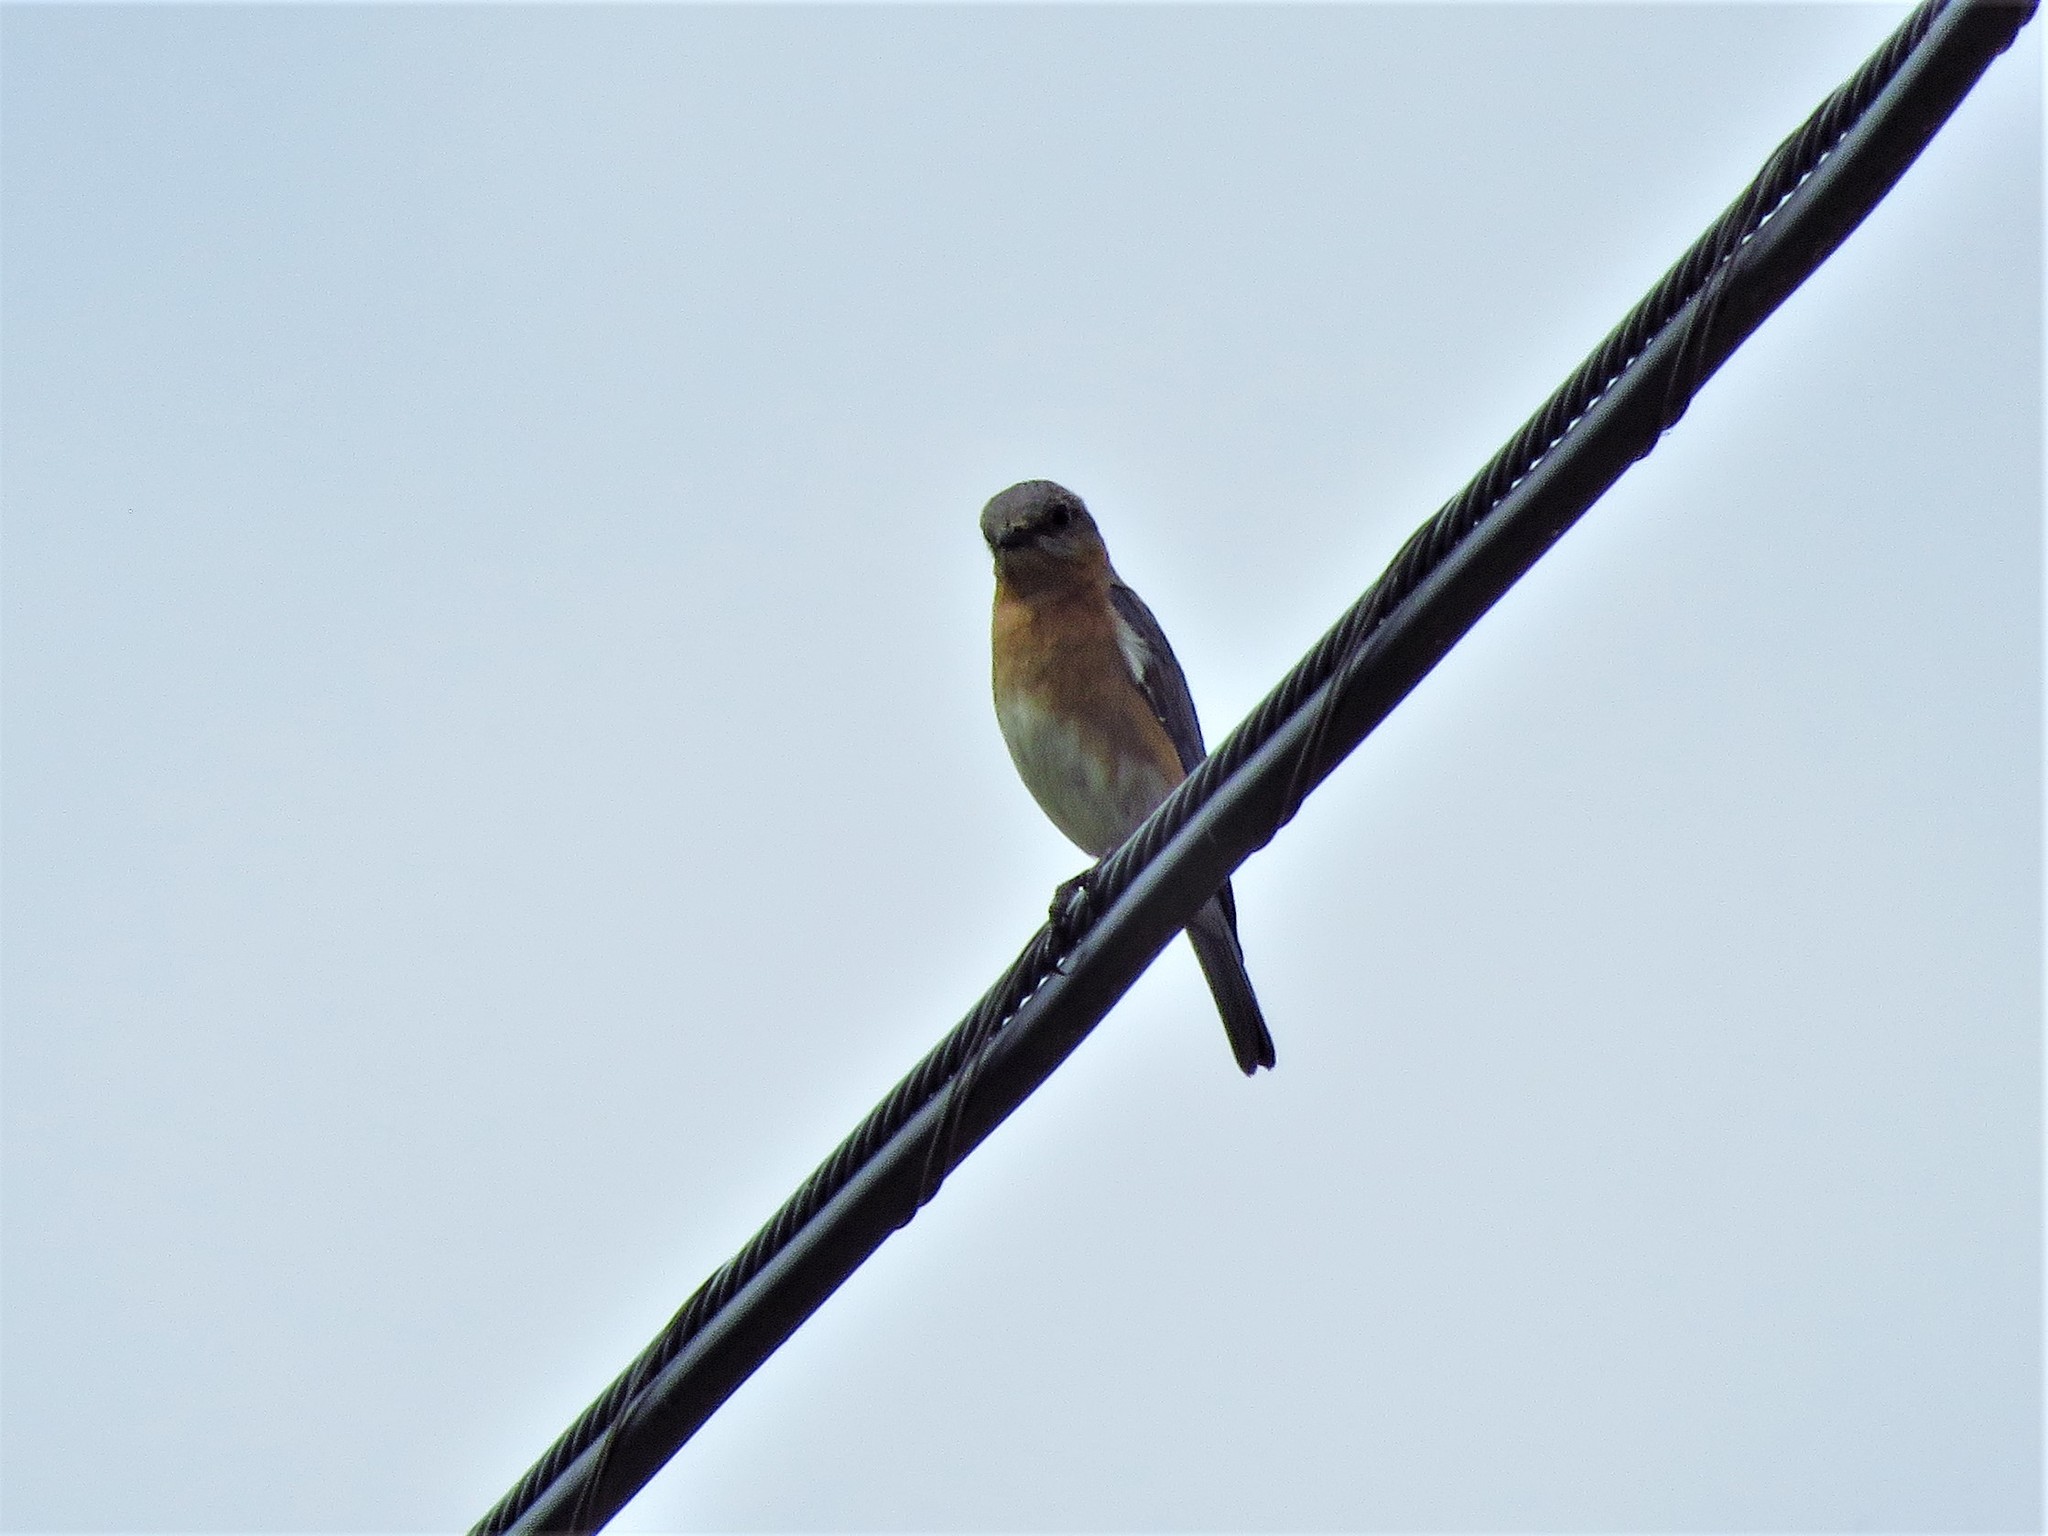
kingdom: Animalia
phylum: Chordata
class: Aves
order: Passeriformes
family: Turdidae
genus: Sialia
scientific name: Sialia sialis
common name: Eastern bluebird
